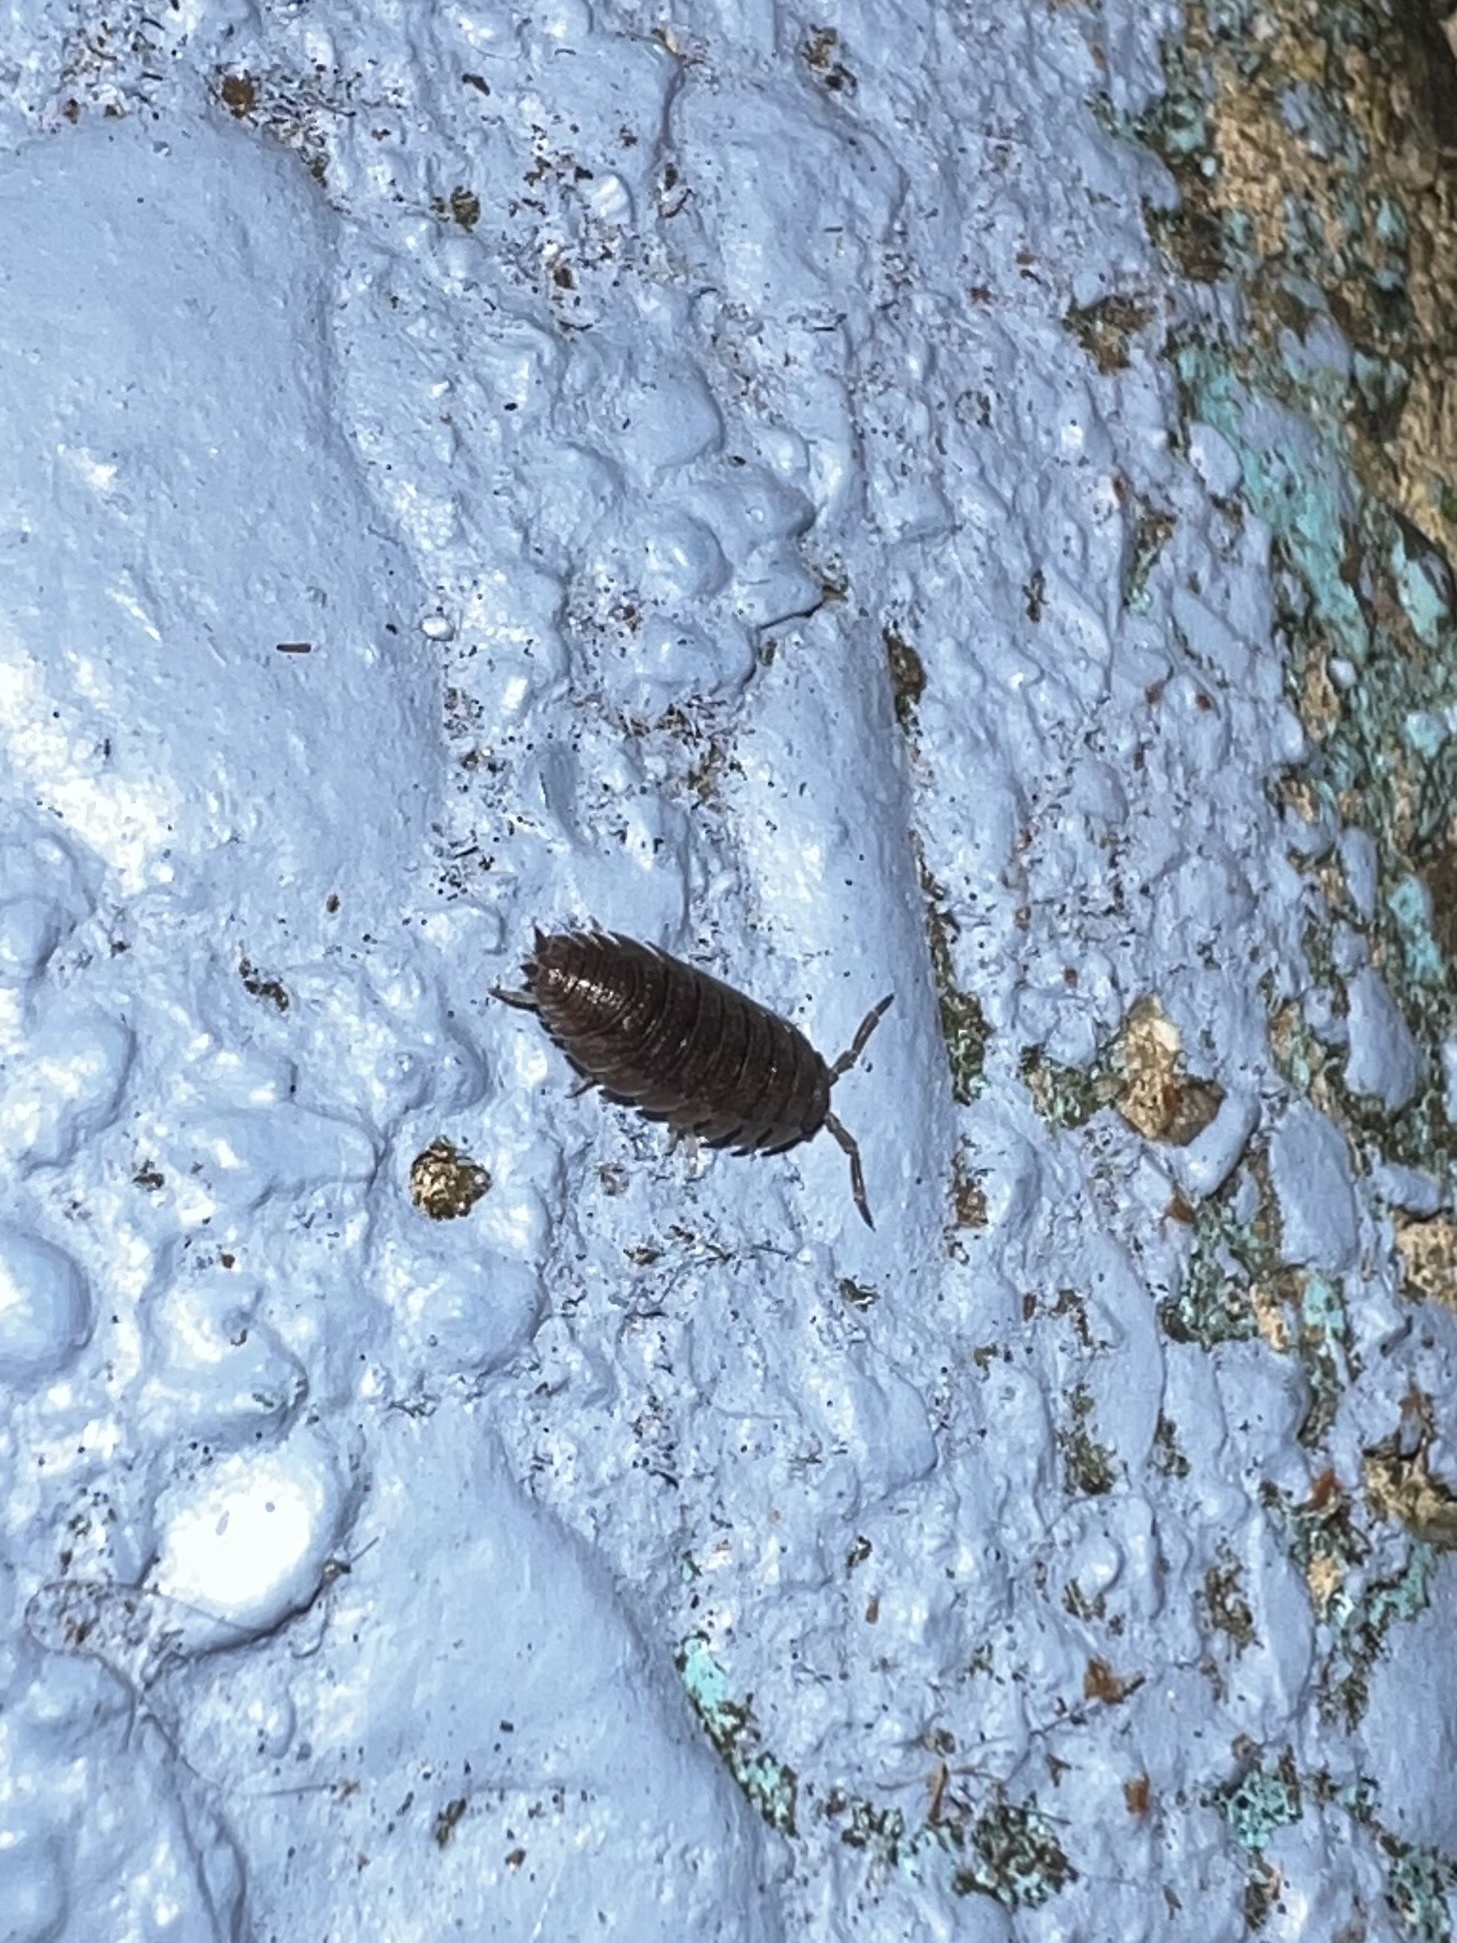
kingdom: Animalia
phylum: Arthropoda
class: Malacostraca
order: Isopoda
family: Porcellionidae
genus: Porcellio
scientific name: Porcellio scaber
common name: Common rough woodlouse
